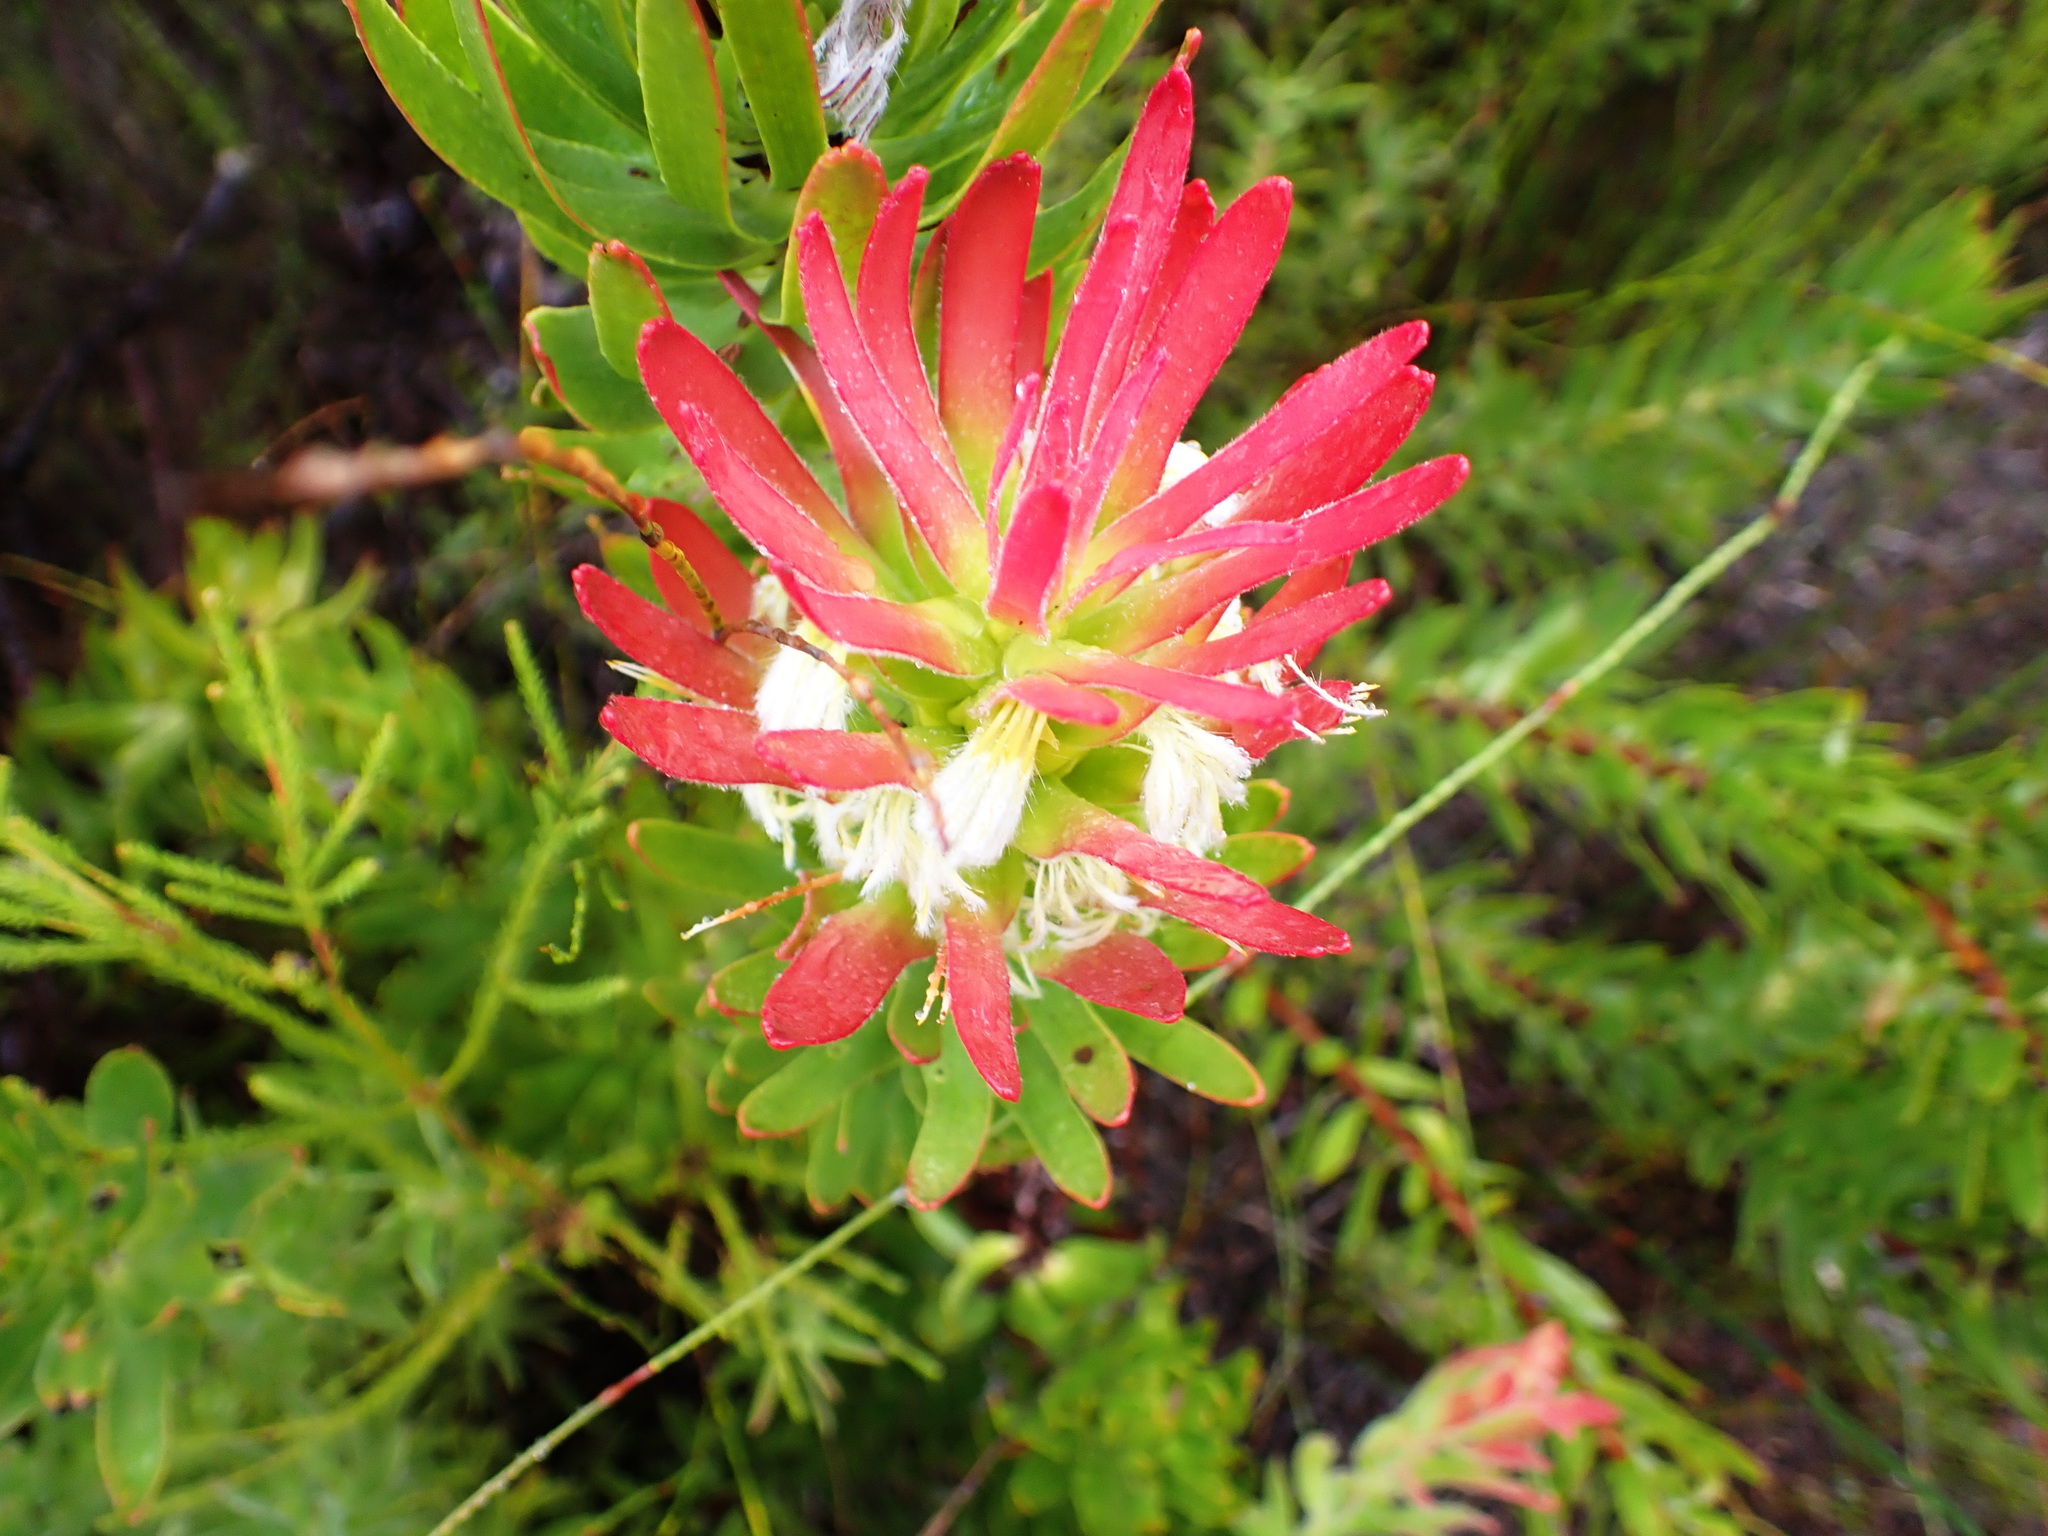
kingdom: Plantae
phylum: Tracheophyta
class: Magnoliopsida
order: Proteales
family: Proteaceae
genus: Mimetes
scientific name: Mimetes cucullatus
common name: Common pagoda
